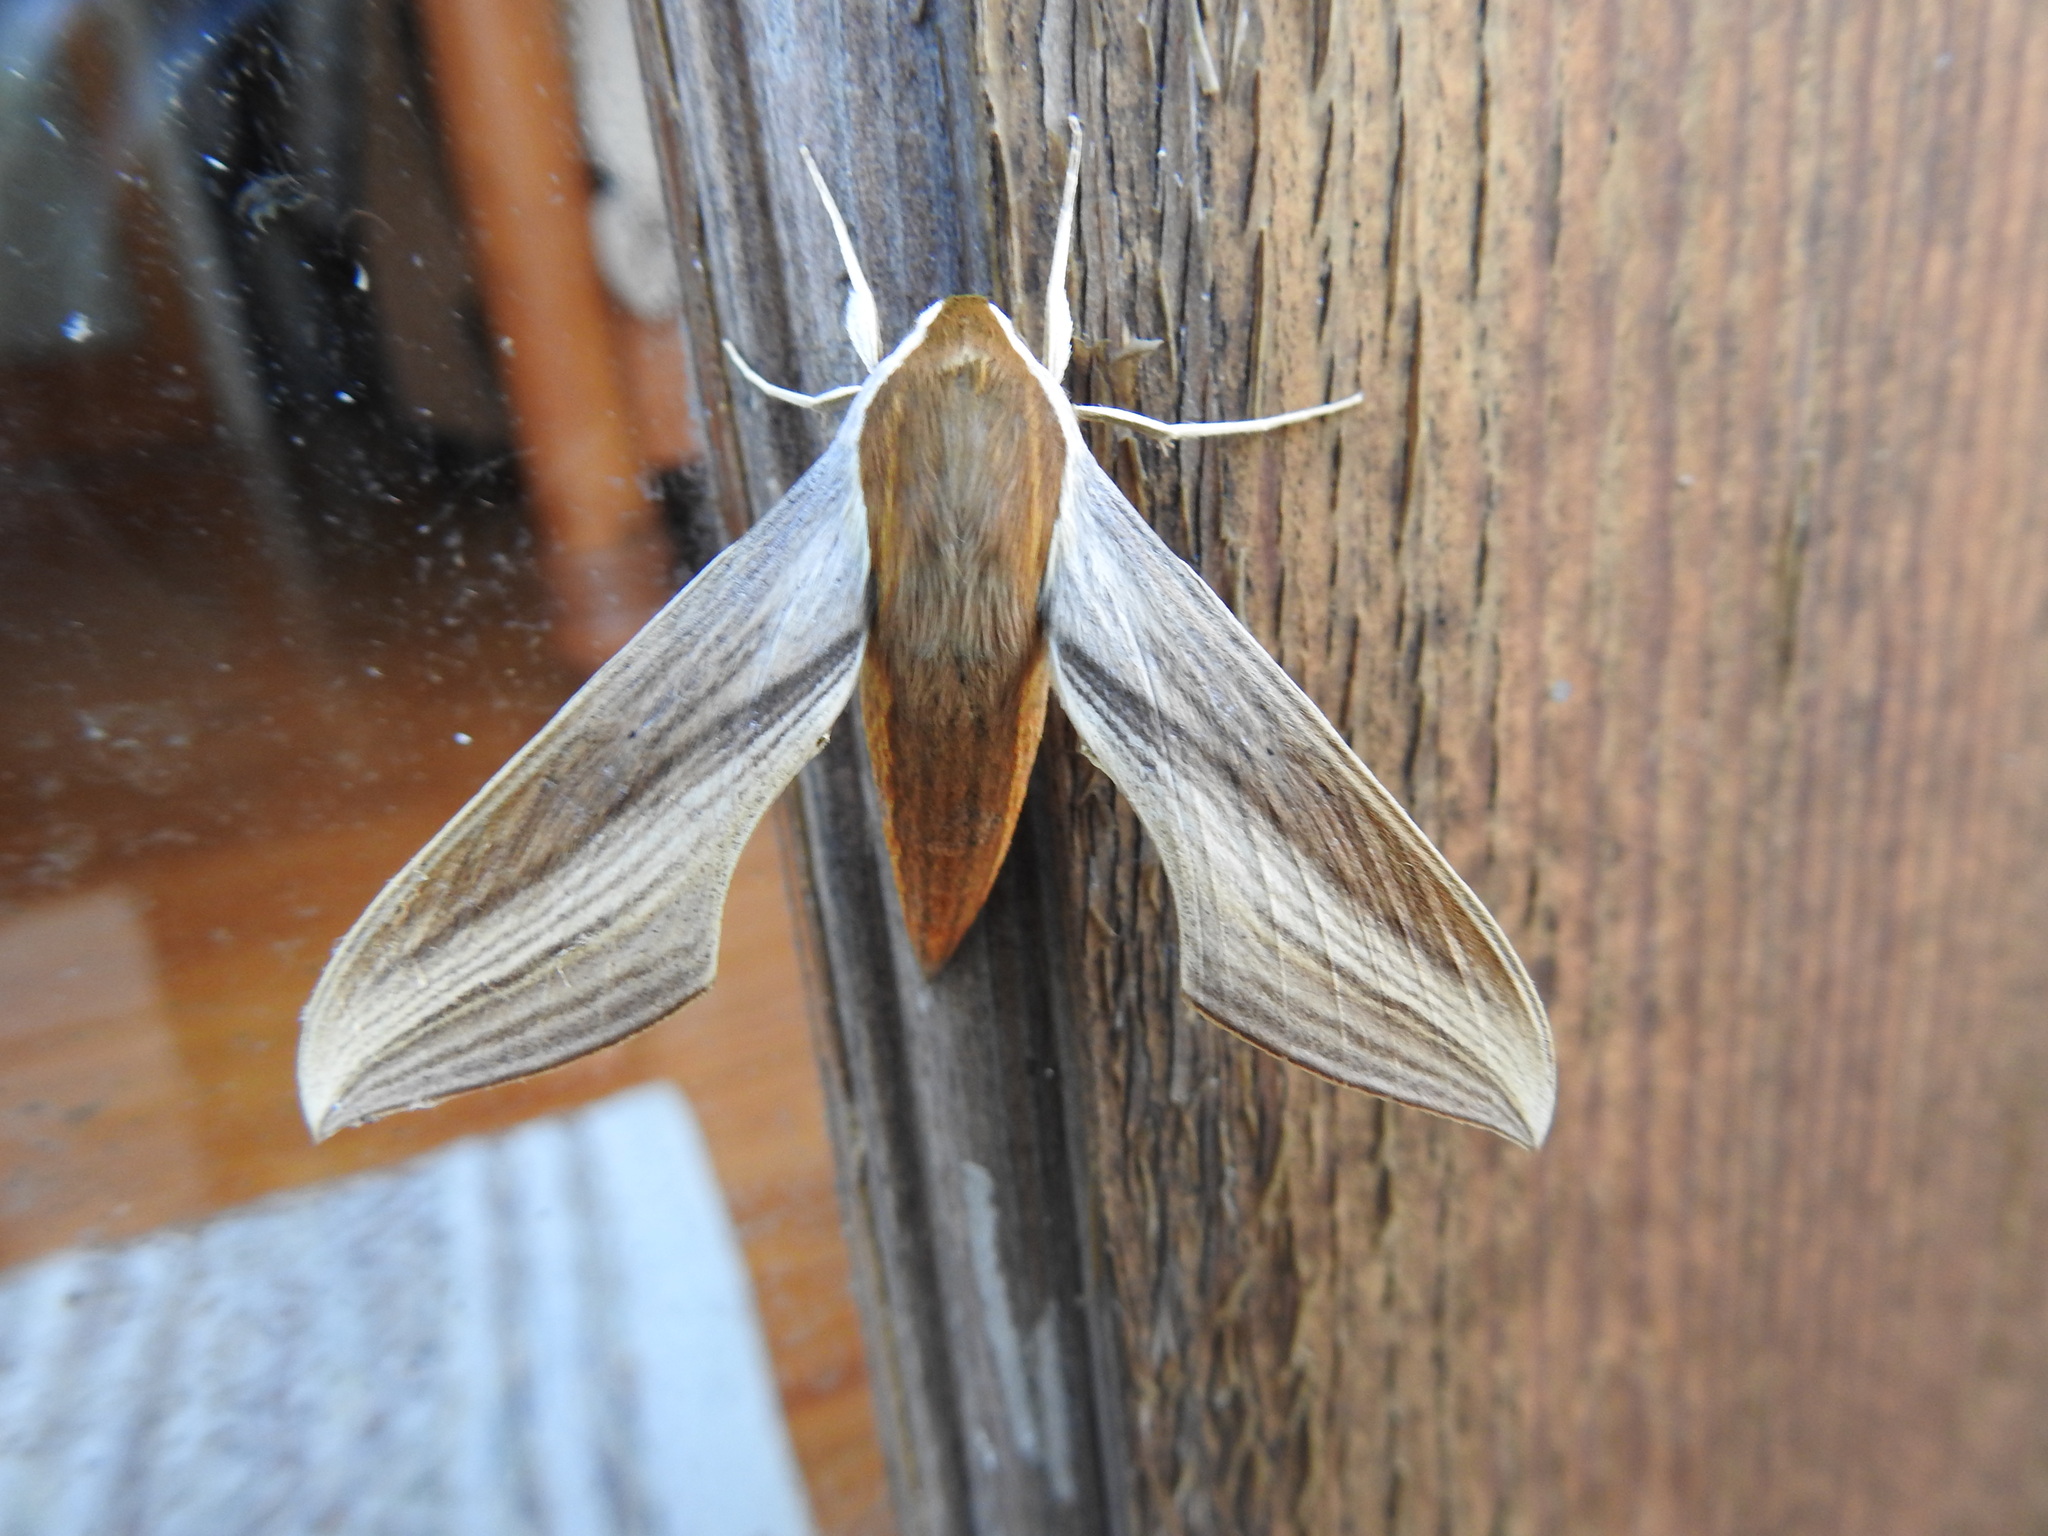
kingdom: Animalia
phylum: Arthropoda
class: Insecta
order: Lepidoptera
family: Sphingidae
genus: Xylophanes
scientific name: Xylophanes tersa
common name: Tersa sphinx
